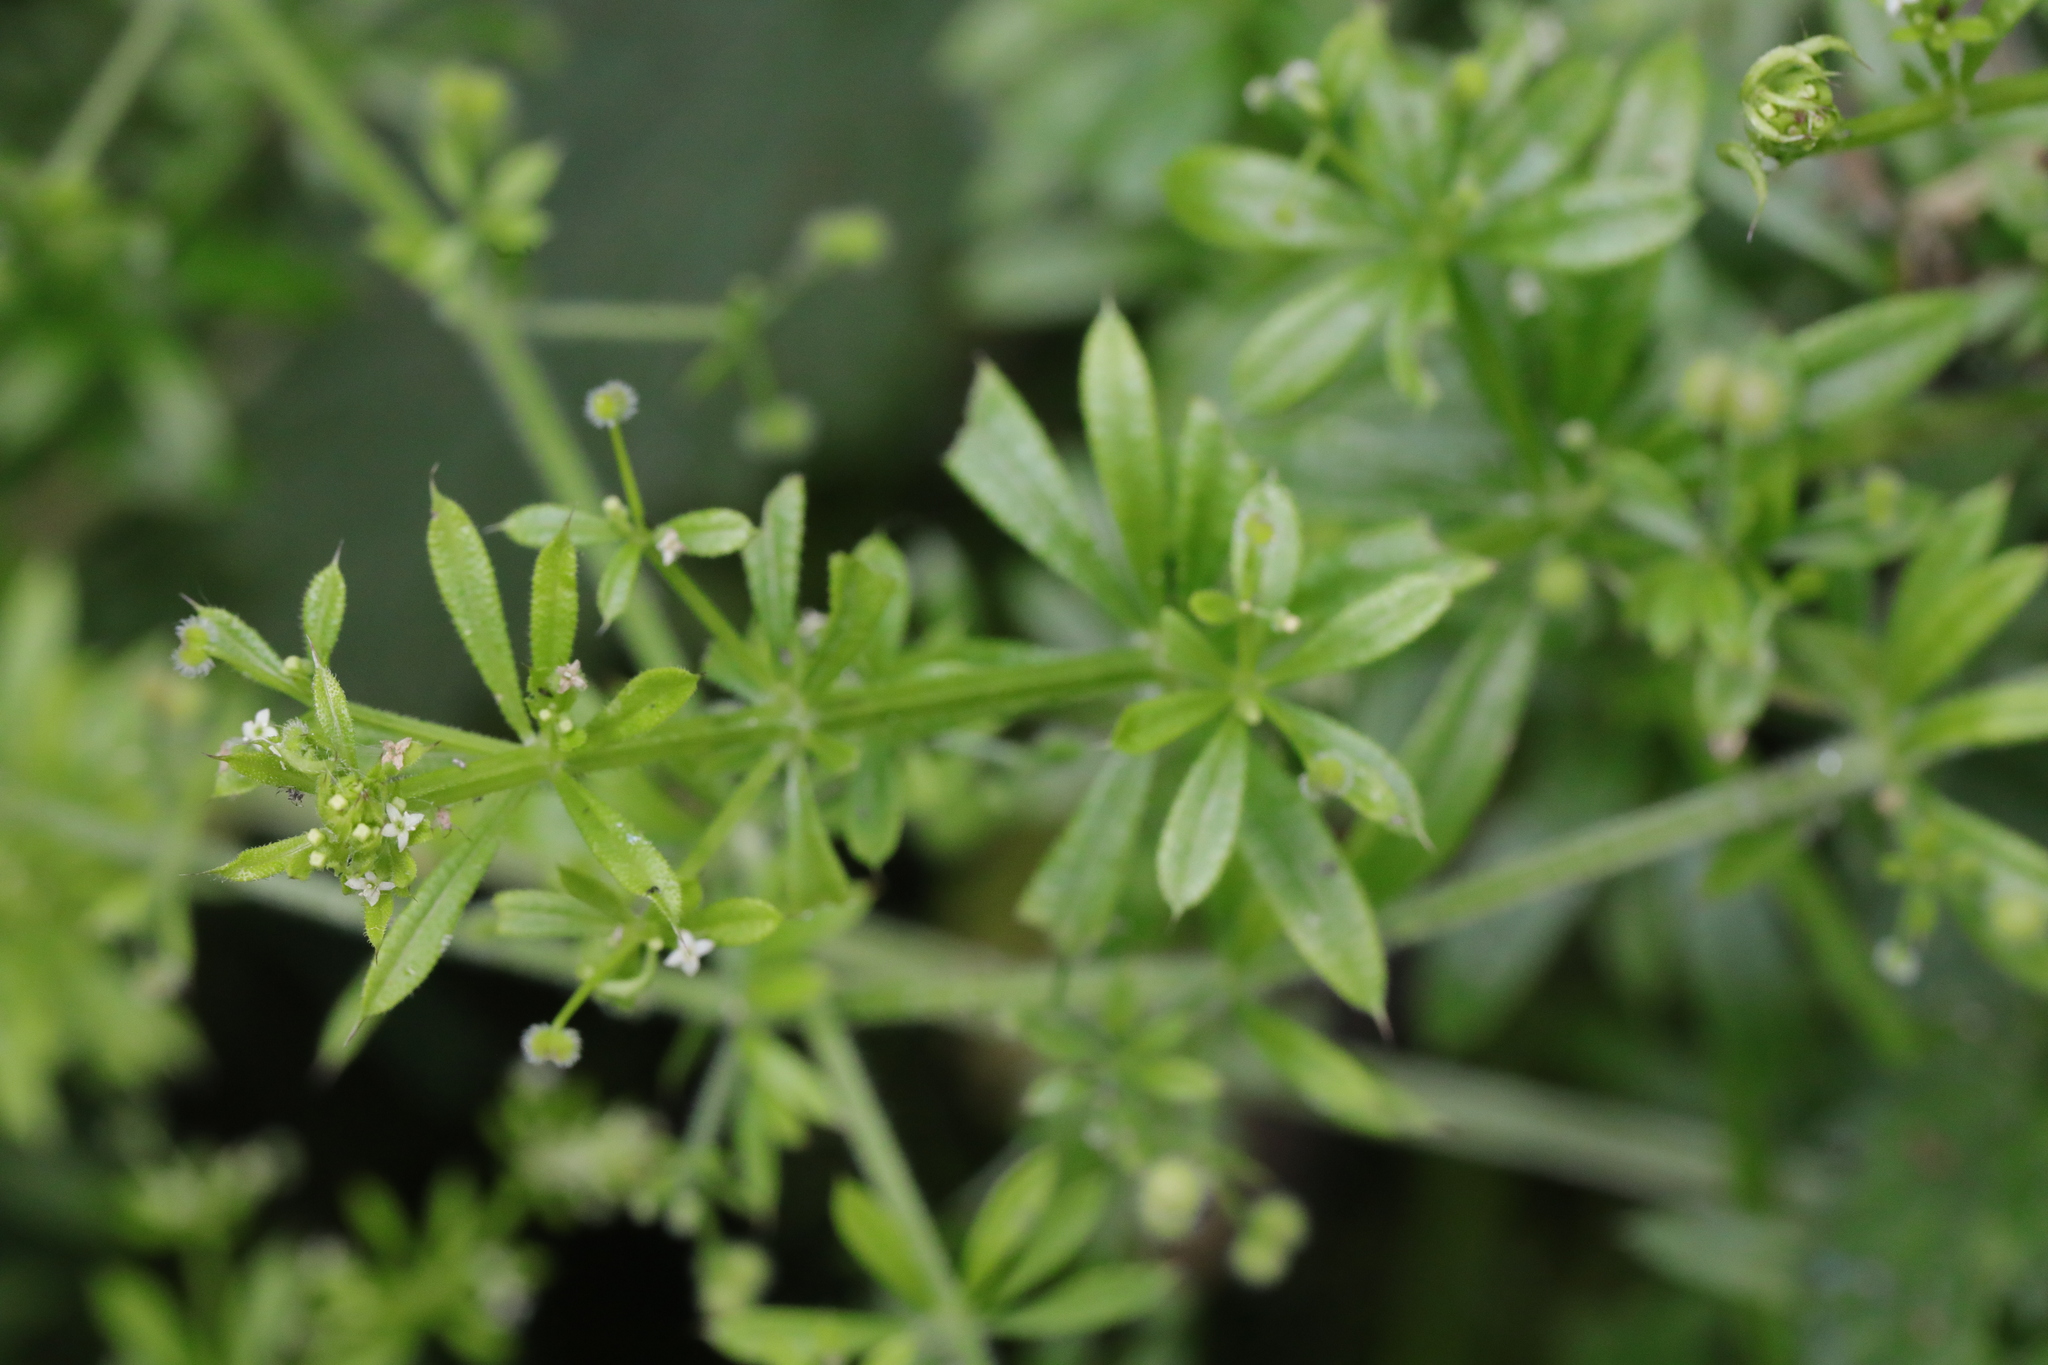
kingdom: Plantae
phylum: Tracheophyta
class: Magnoliopsida
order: Gentianales
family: Rubiaceae
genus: Galium
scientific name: Galium aparine
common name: Cleavers
